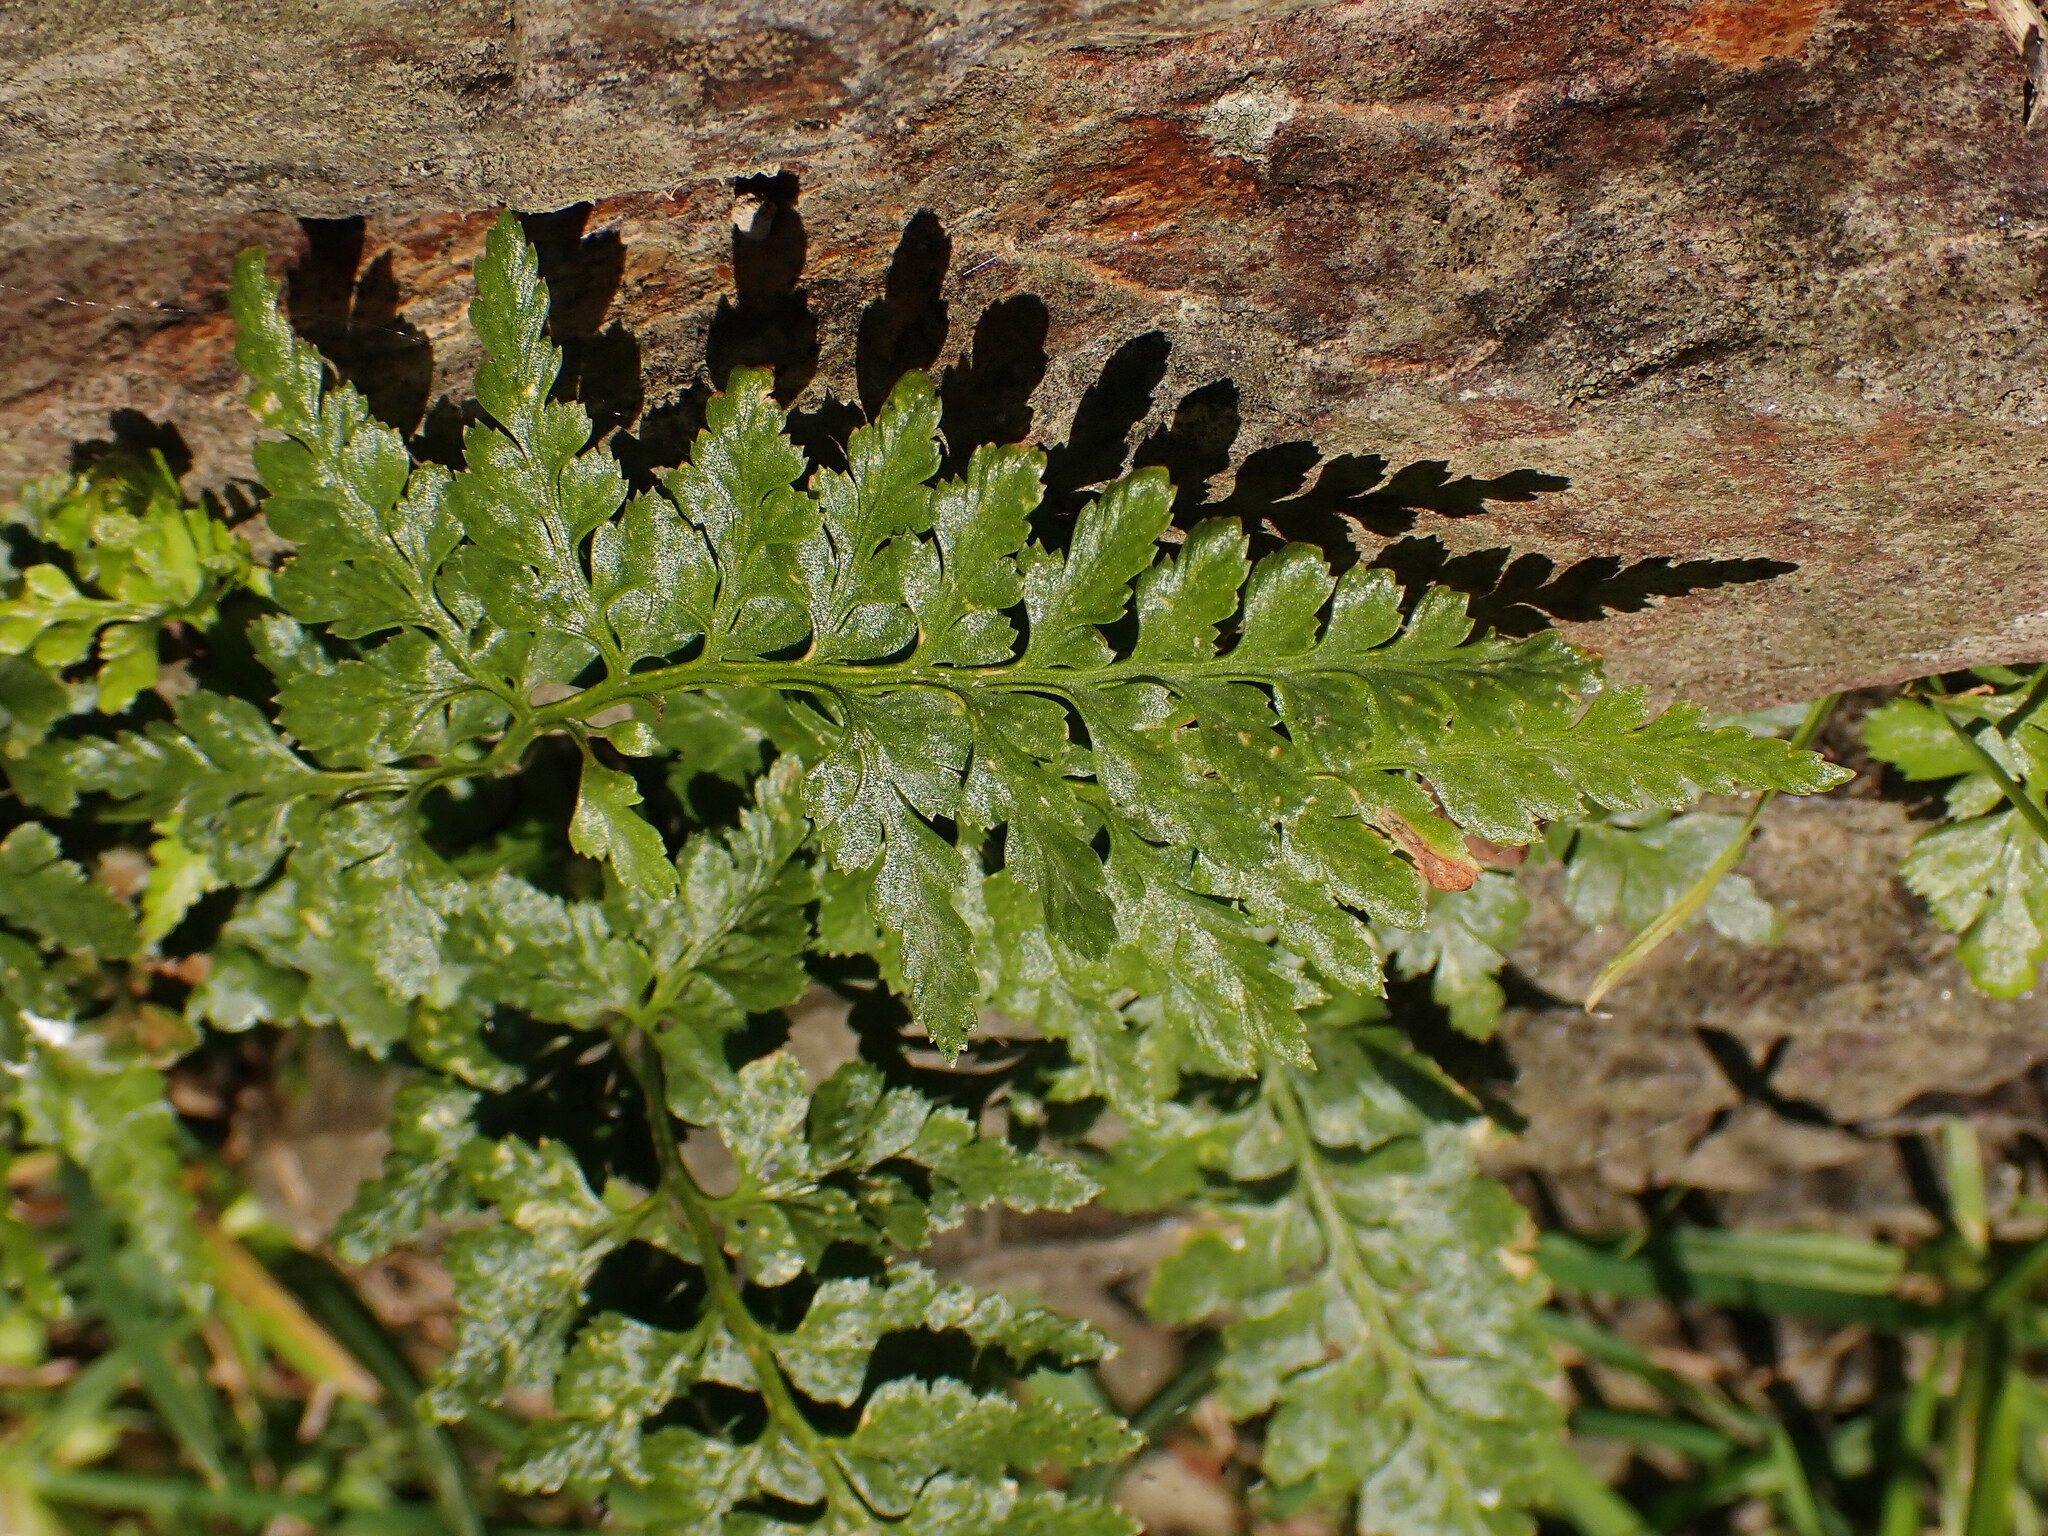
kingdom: Plantae
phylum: Tracheophyta
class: Polypodiopsida
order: Polypodiales
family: Aspleniaceae
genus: Asplenium
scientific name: Asplenium adiantum-nigrum
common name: Black spleenwort
